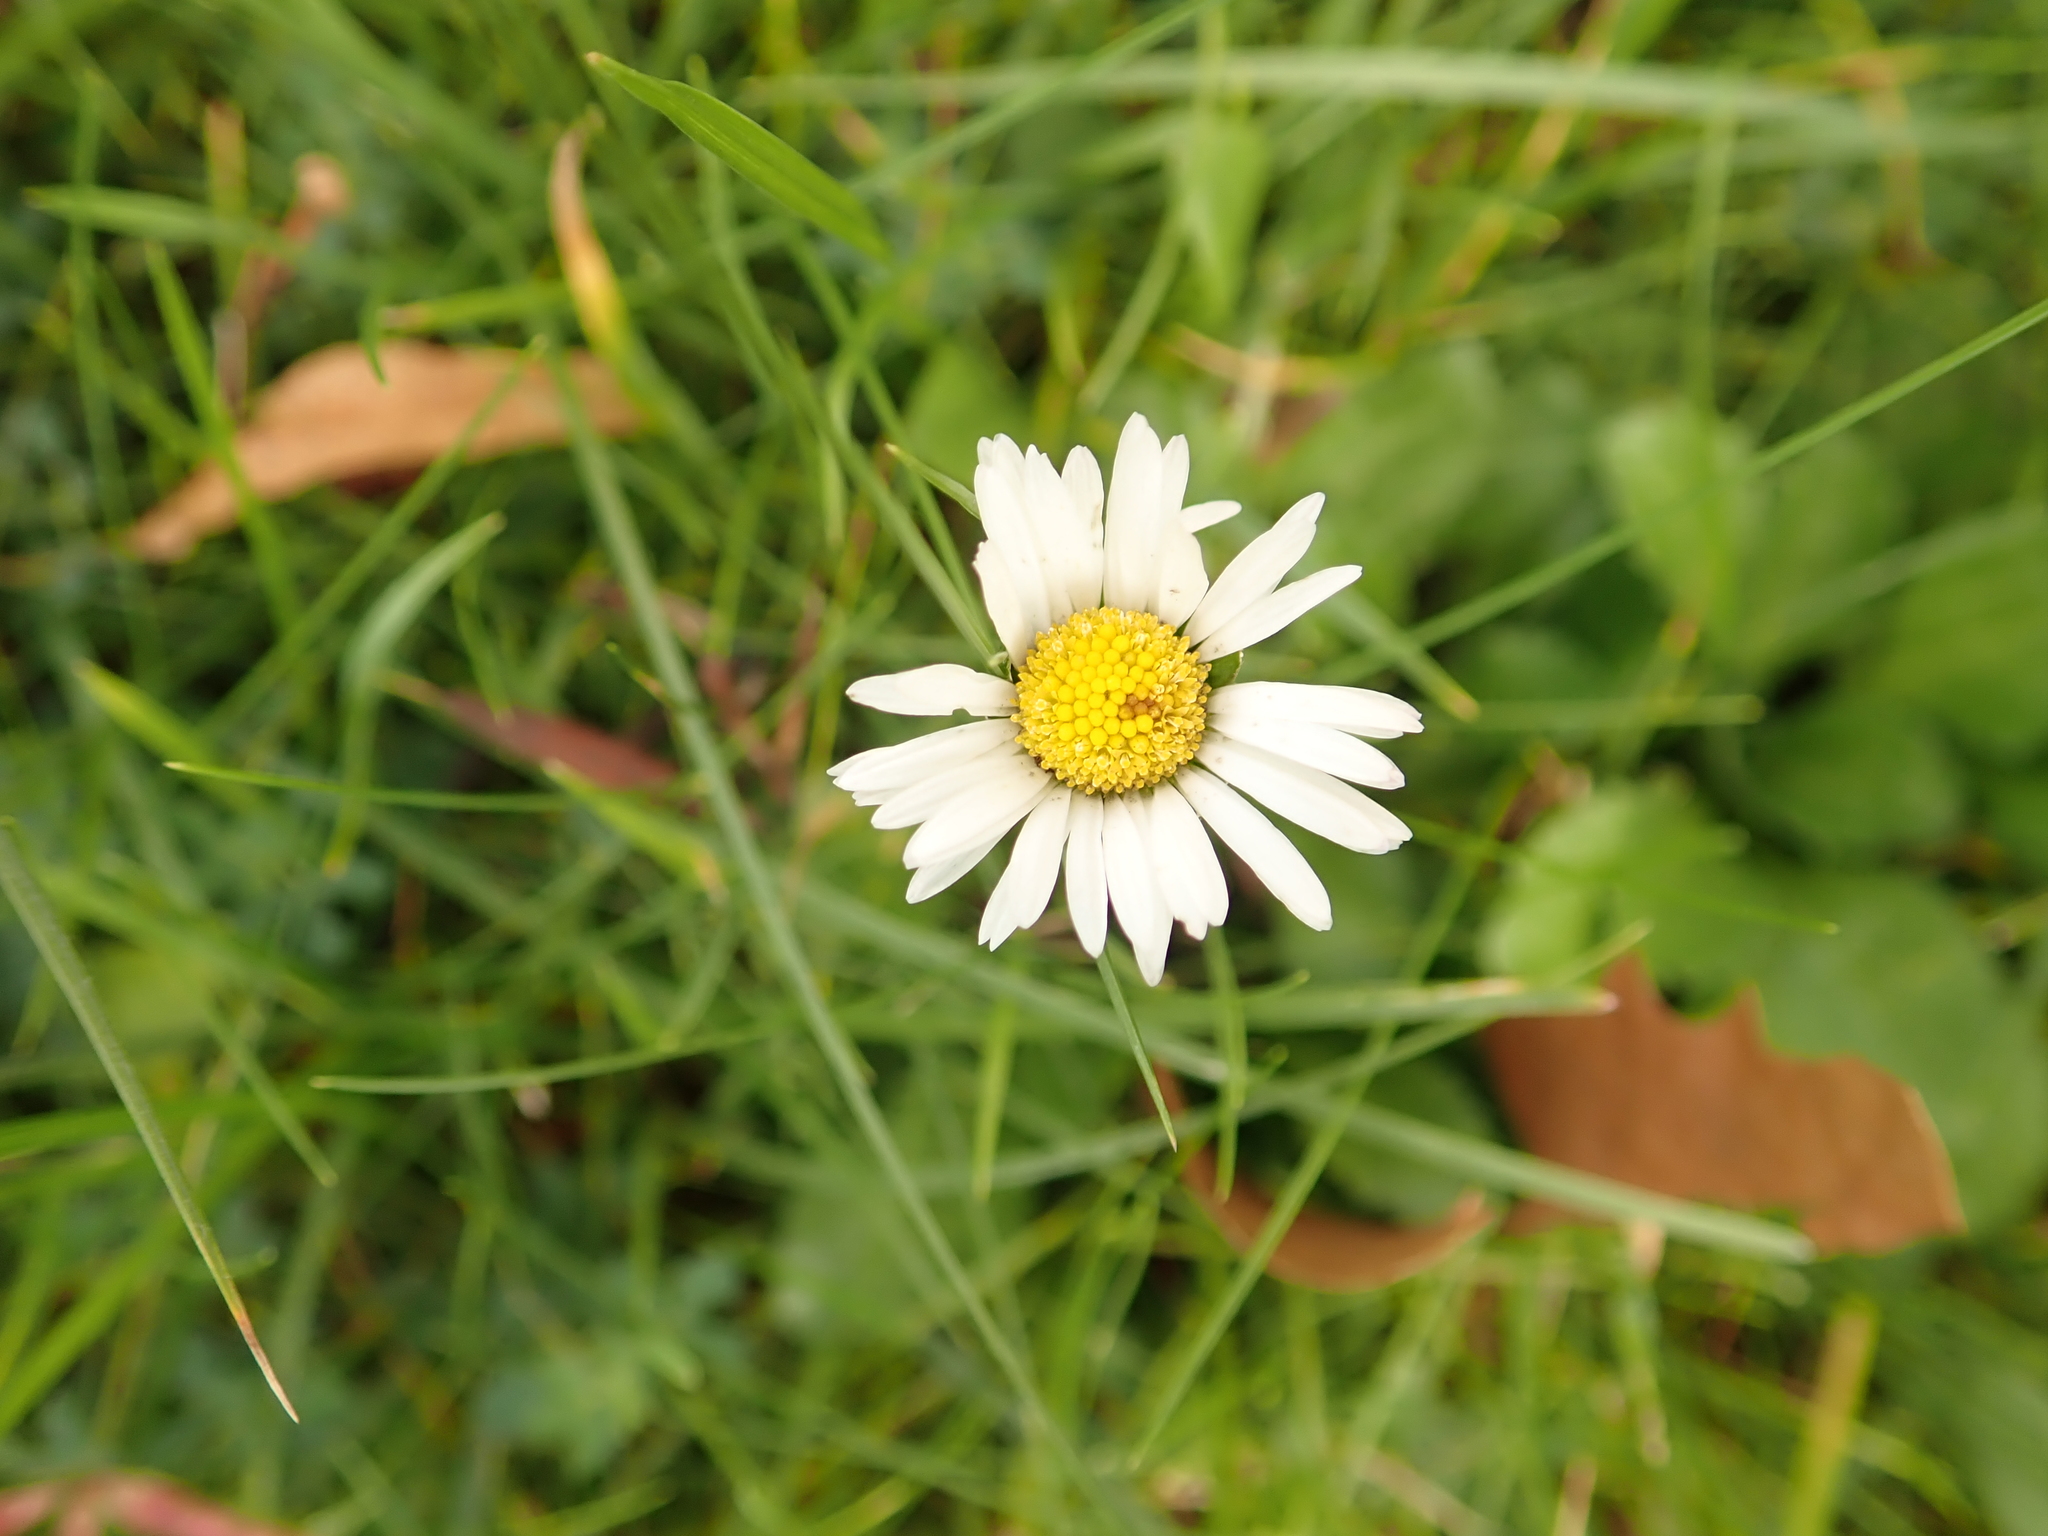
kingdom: Plantae
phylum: Tracheophyta
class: Magnoliopsida
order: Asterales
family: Asteraceae
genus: Bellis
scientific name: Bellis perennis
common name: Lawndaisy
